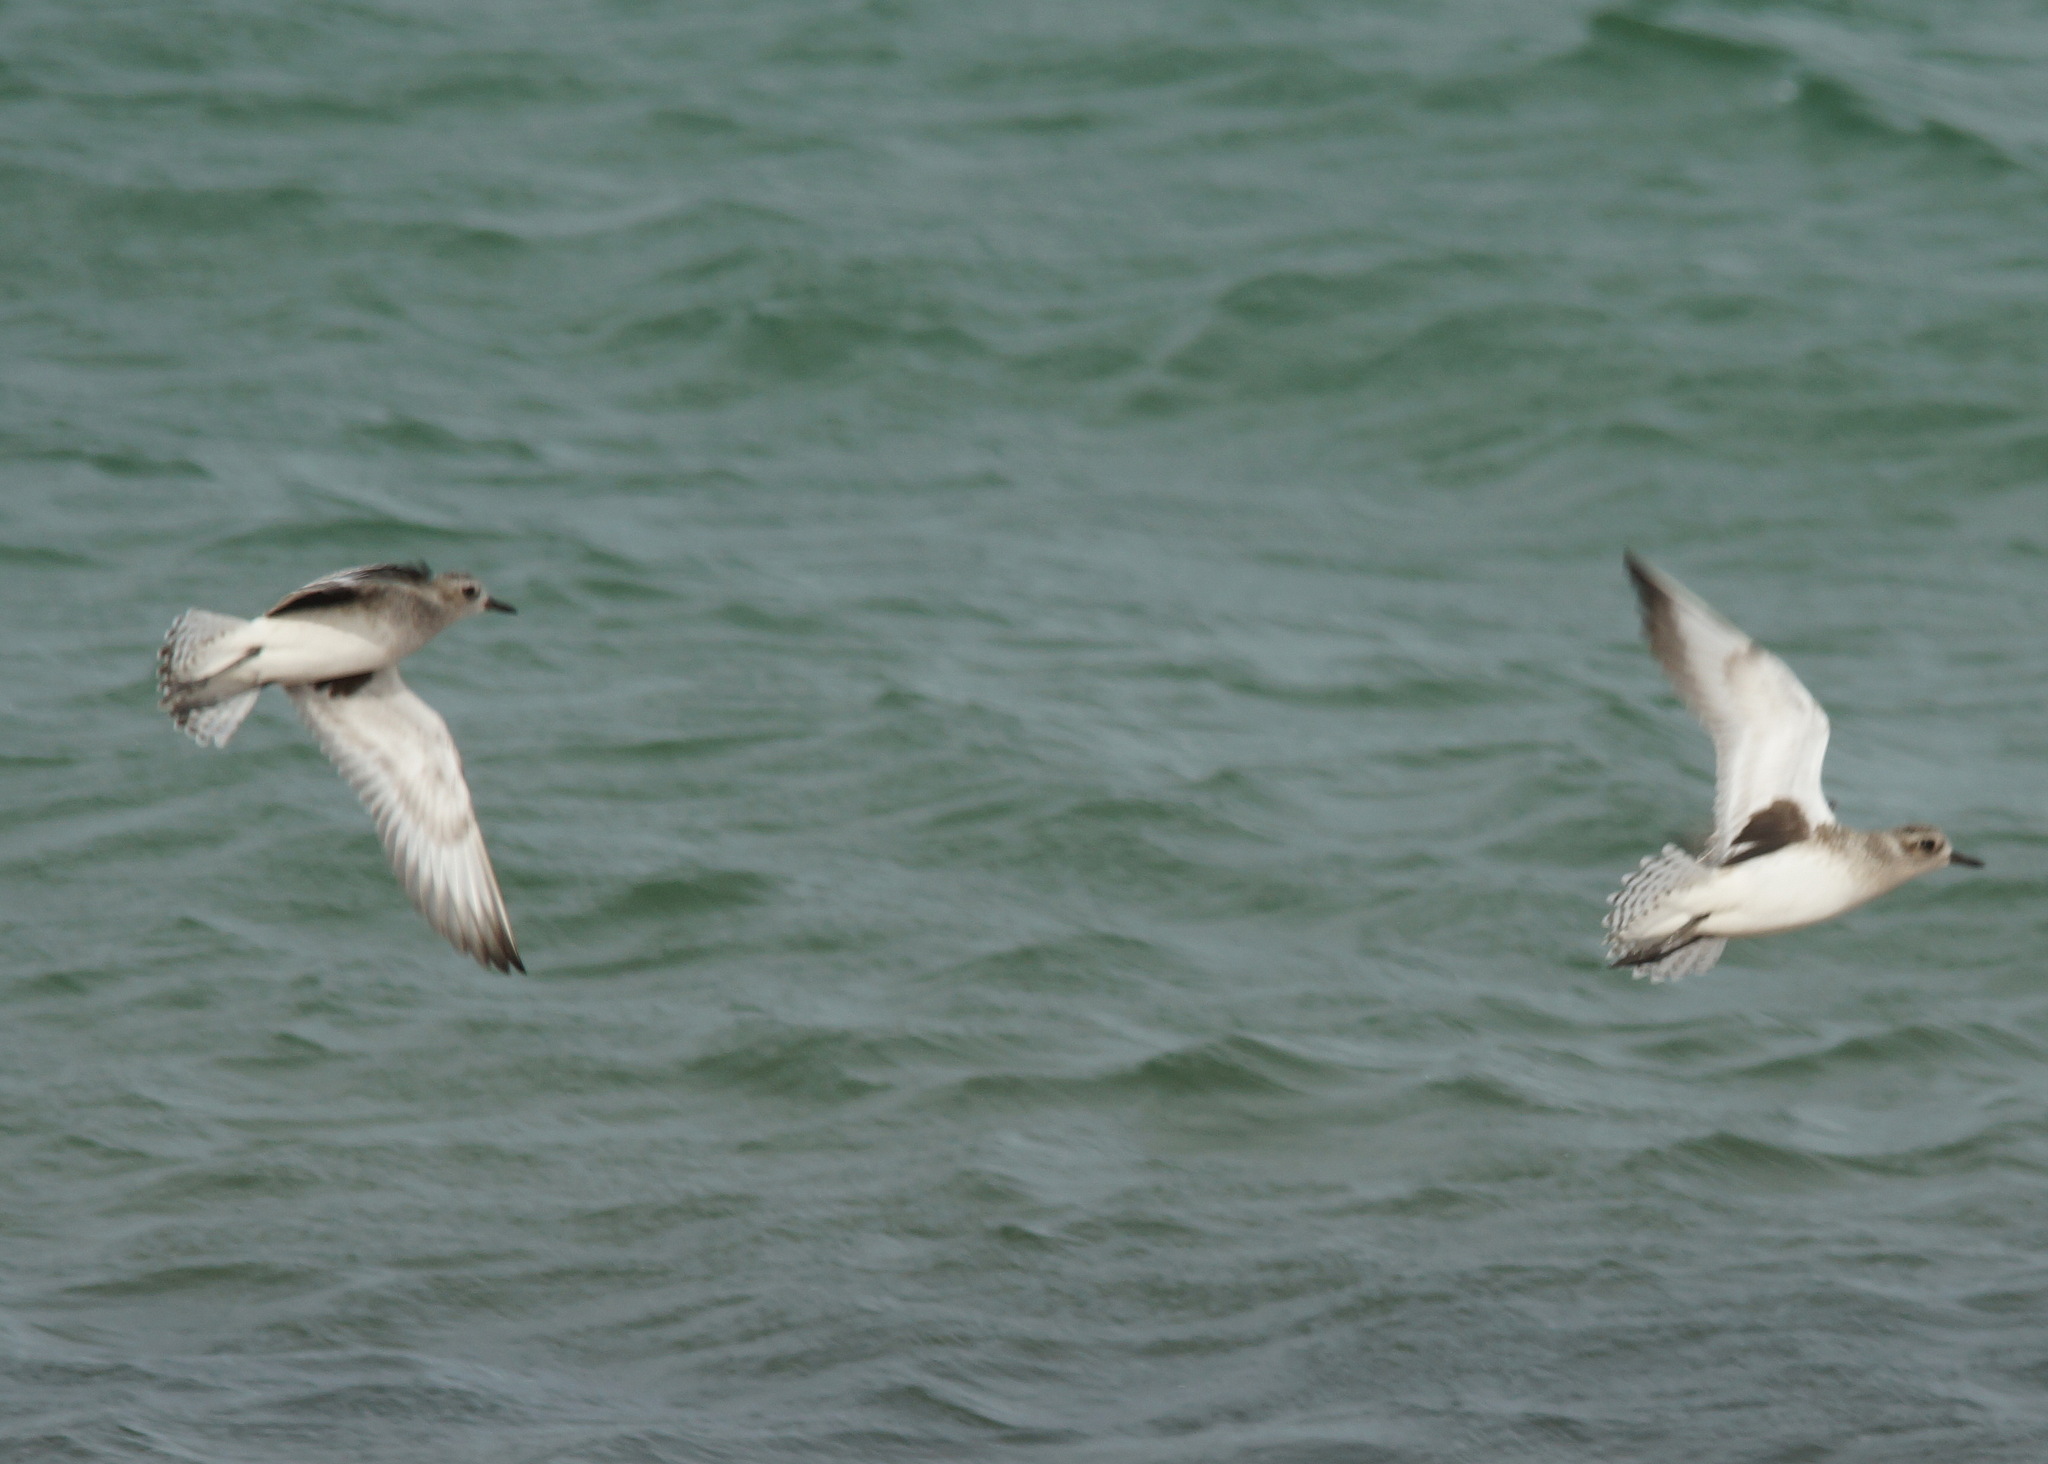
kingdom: Animalia
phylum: Chordata
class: Aves
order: Charadriiformes
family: Charadriidae
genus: Pluvialis
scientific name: Pluvialis squatarola
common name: Grey plover
